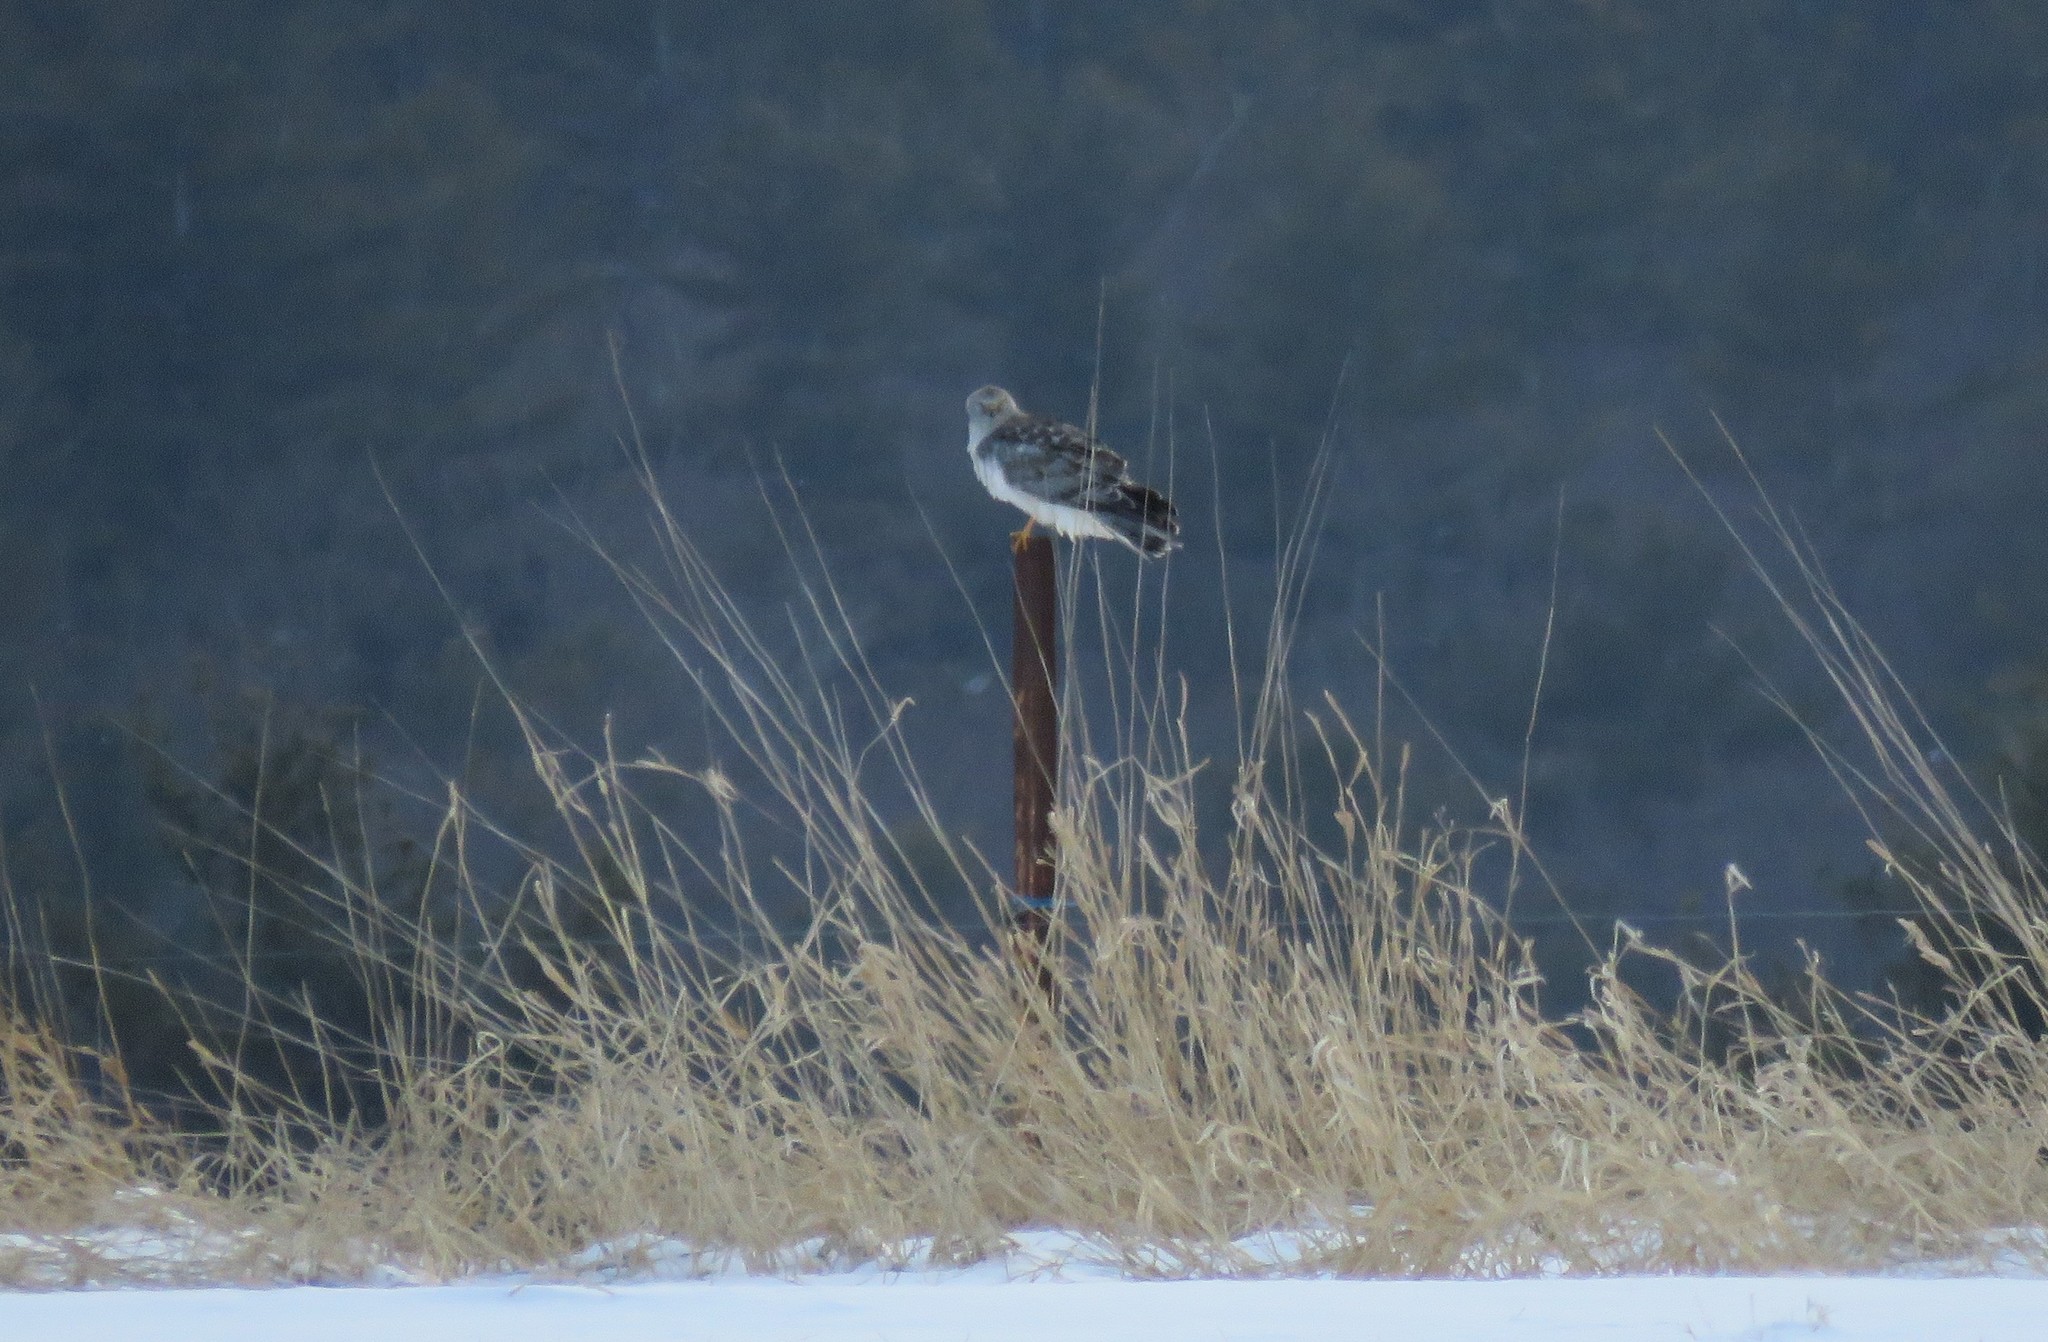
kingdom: Animalia
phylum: Chordata
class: Aves
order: Accipitriformes
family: Accipitridae
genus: Circus
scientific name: Circus cyaneus
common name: Hen harrier
